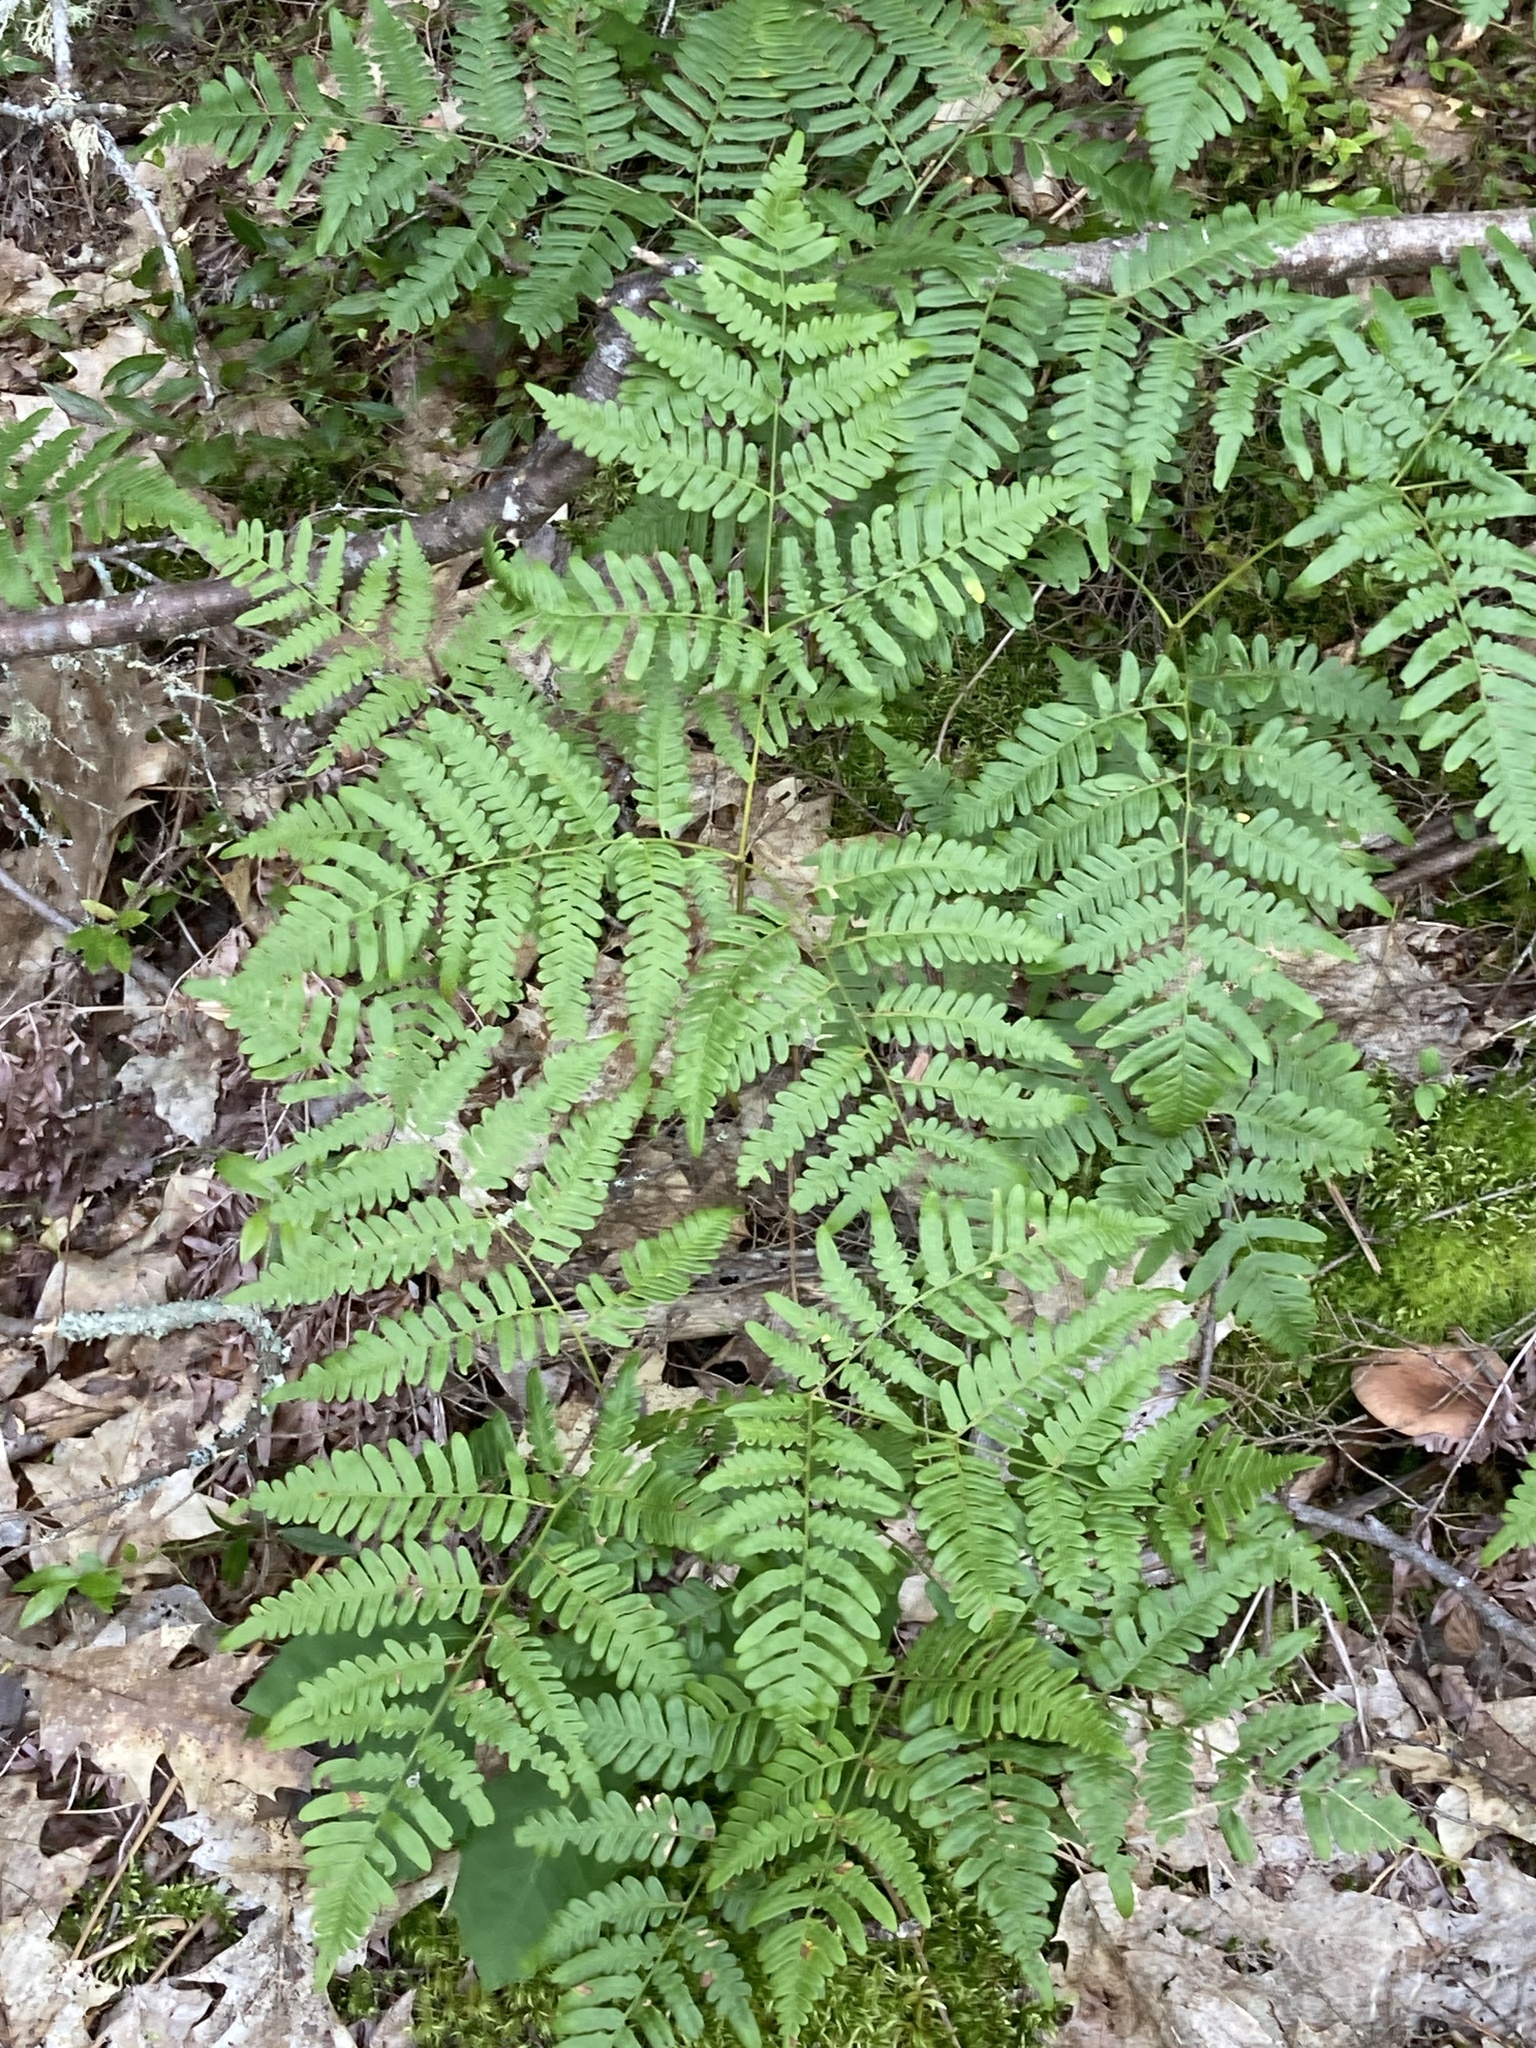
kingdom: Plantae
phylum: Tracheophyta
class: Polypodiopsida
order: Polypodiales
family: Dennstaedtiaceae
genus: Pteridium
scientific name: Pteridium aquilinum
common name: Bracken
